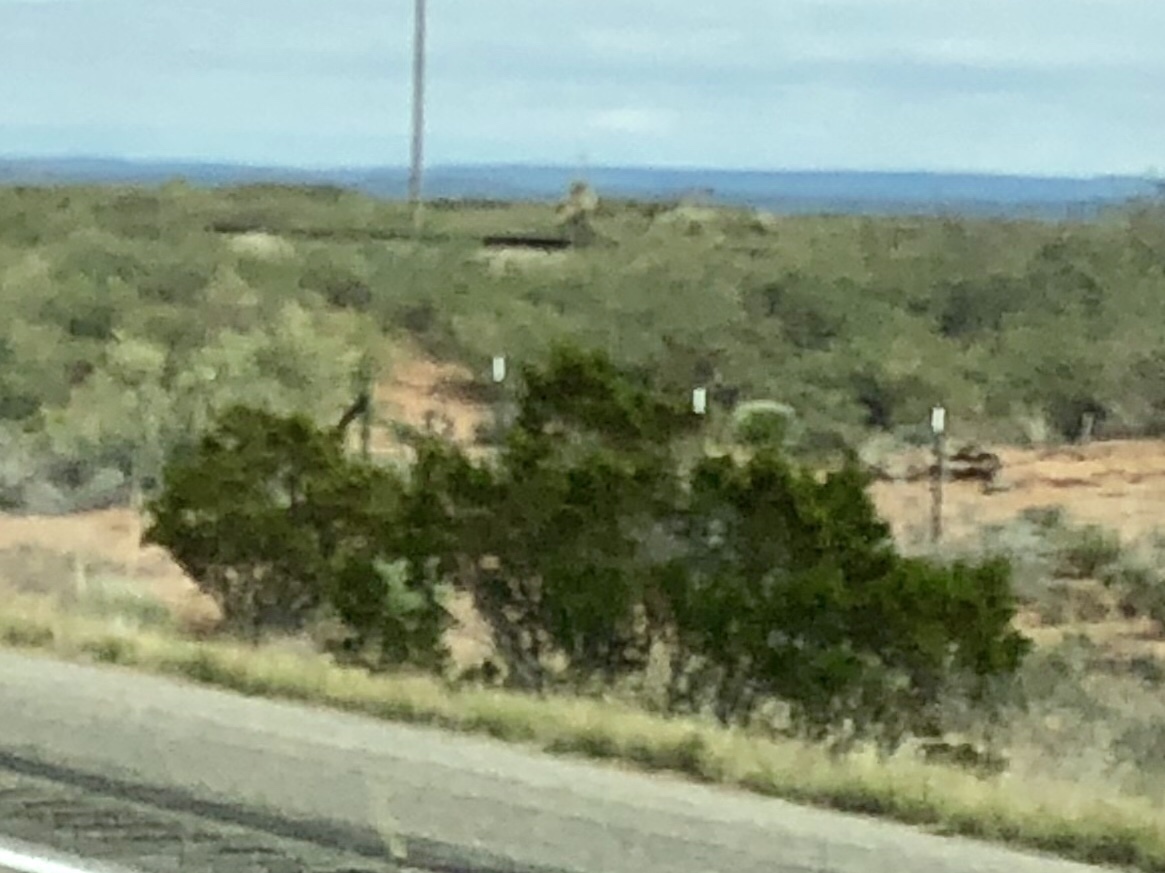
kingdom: Plantae
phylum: Tracheophyta
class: Magnoliopsida
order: Zygophyllales
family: Zygophyllaceae
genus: Larrea
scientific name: Larrea tridentata
